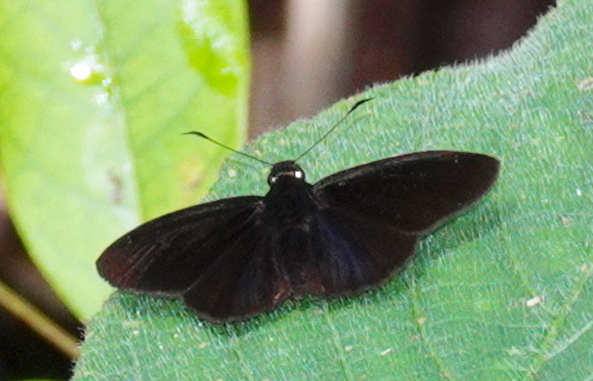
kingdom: Animalia
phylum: Arthropoda
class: Insecta
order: Lepidoptera
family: Hesperiidae
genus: Celaenorrhinus
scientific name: Celaenorrhinus spilothyrus
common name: Sri lanka black flat
